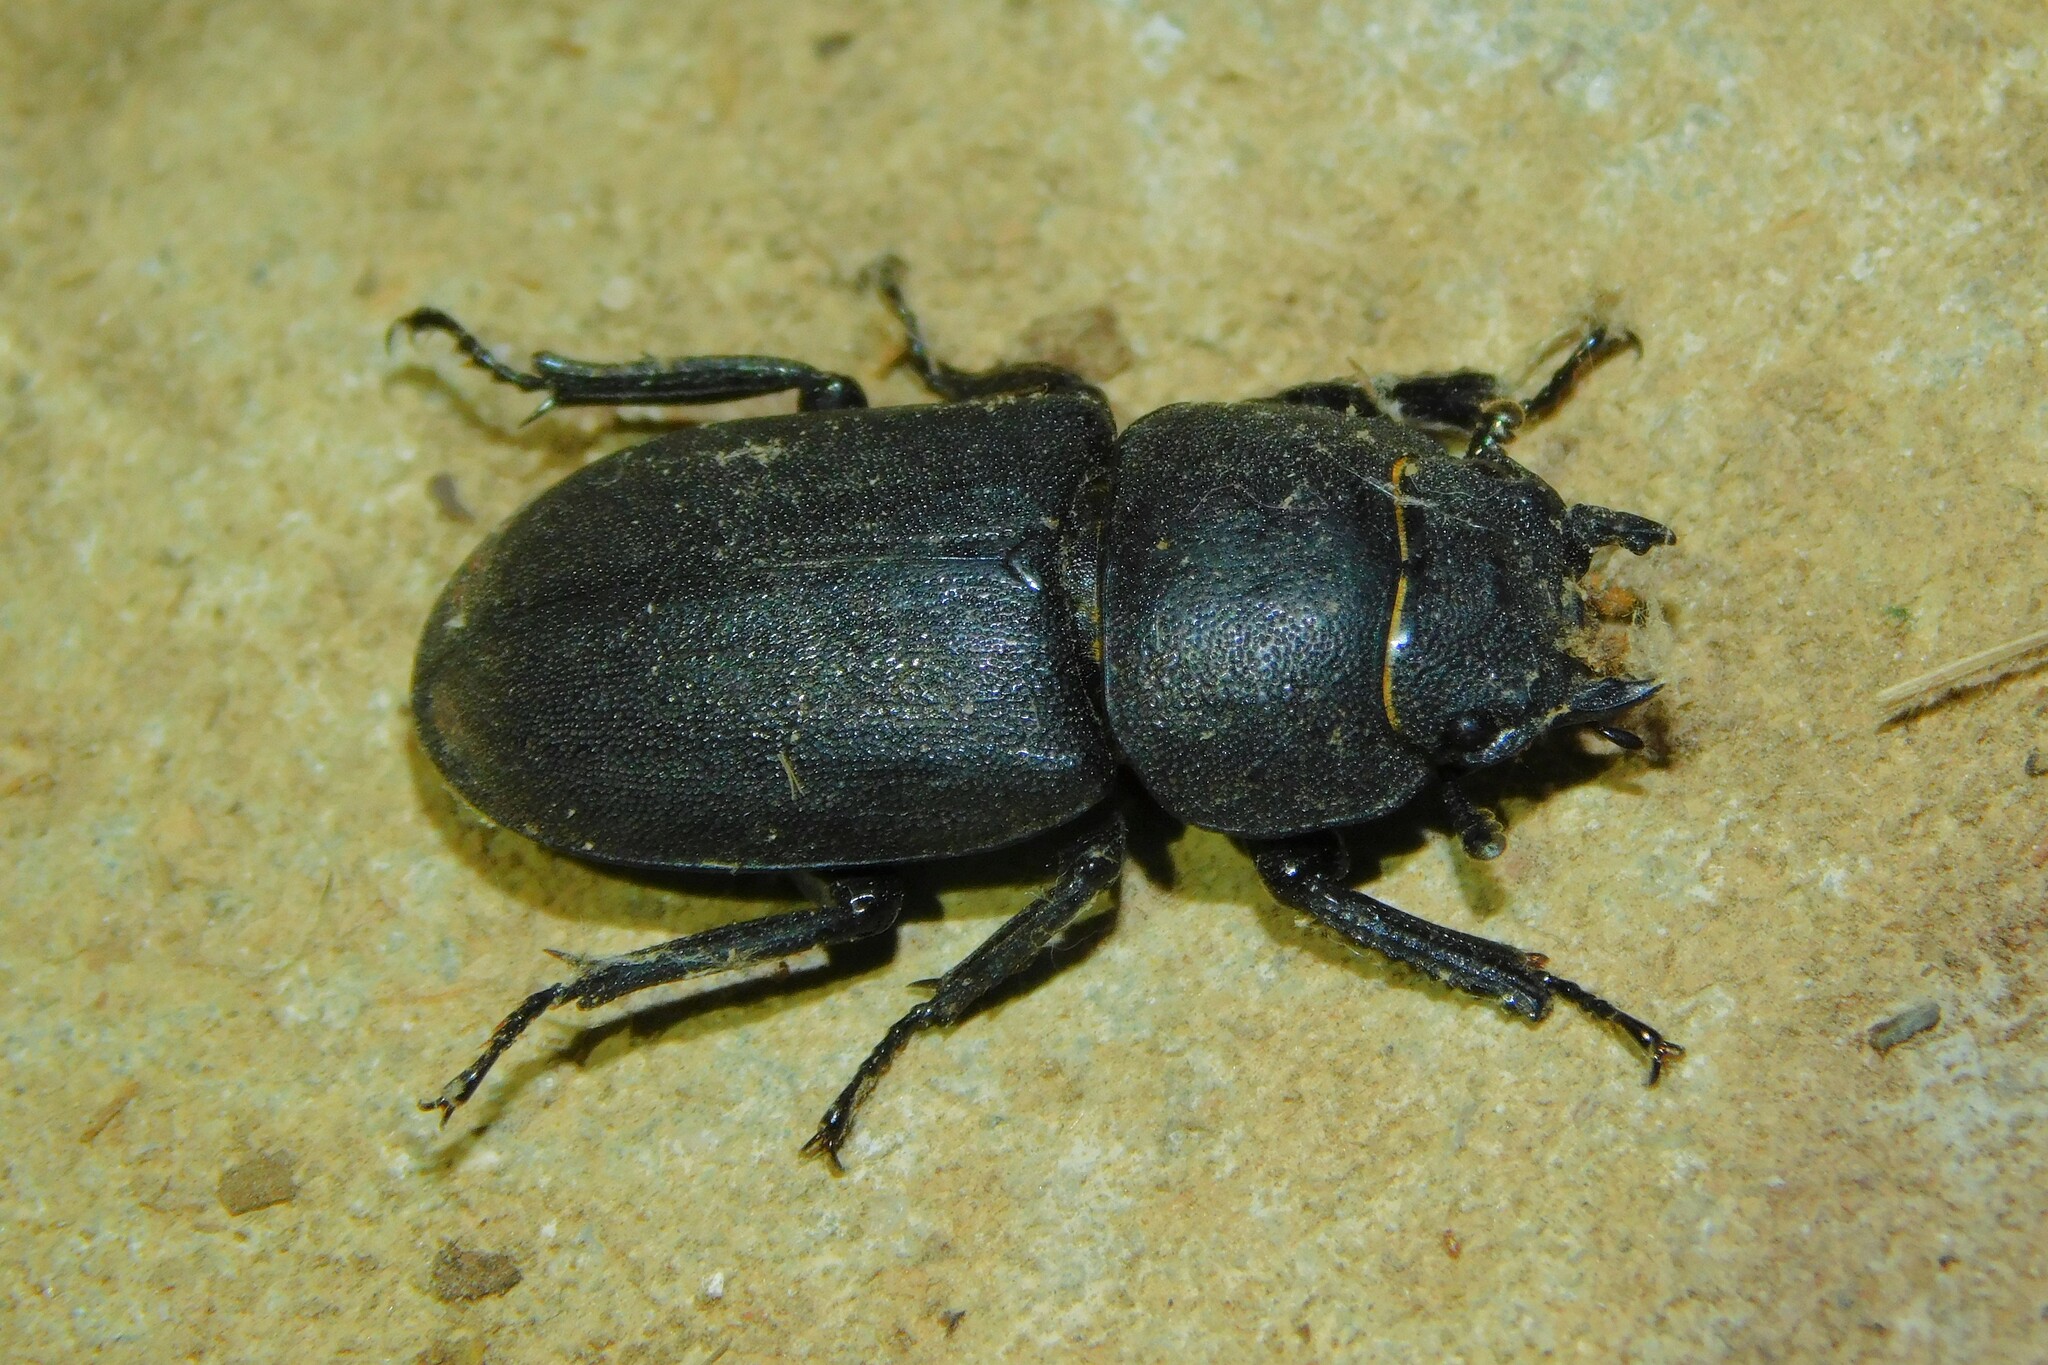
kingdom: Animalia
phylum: Arthropoda
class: Insecta
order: Coleoptera
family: Lucanidae
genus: Dorcus
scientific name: Dorcus parallelipipedus
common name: Lesser stag beetle
